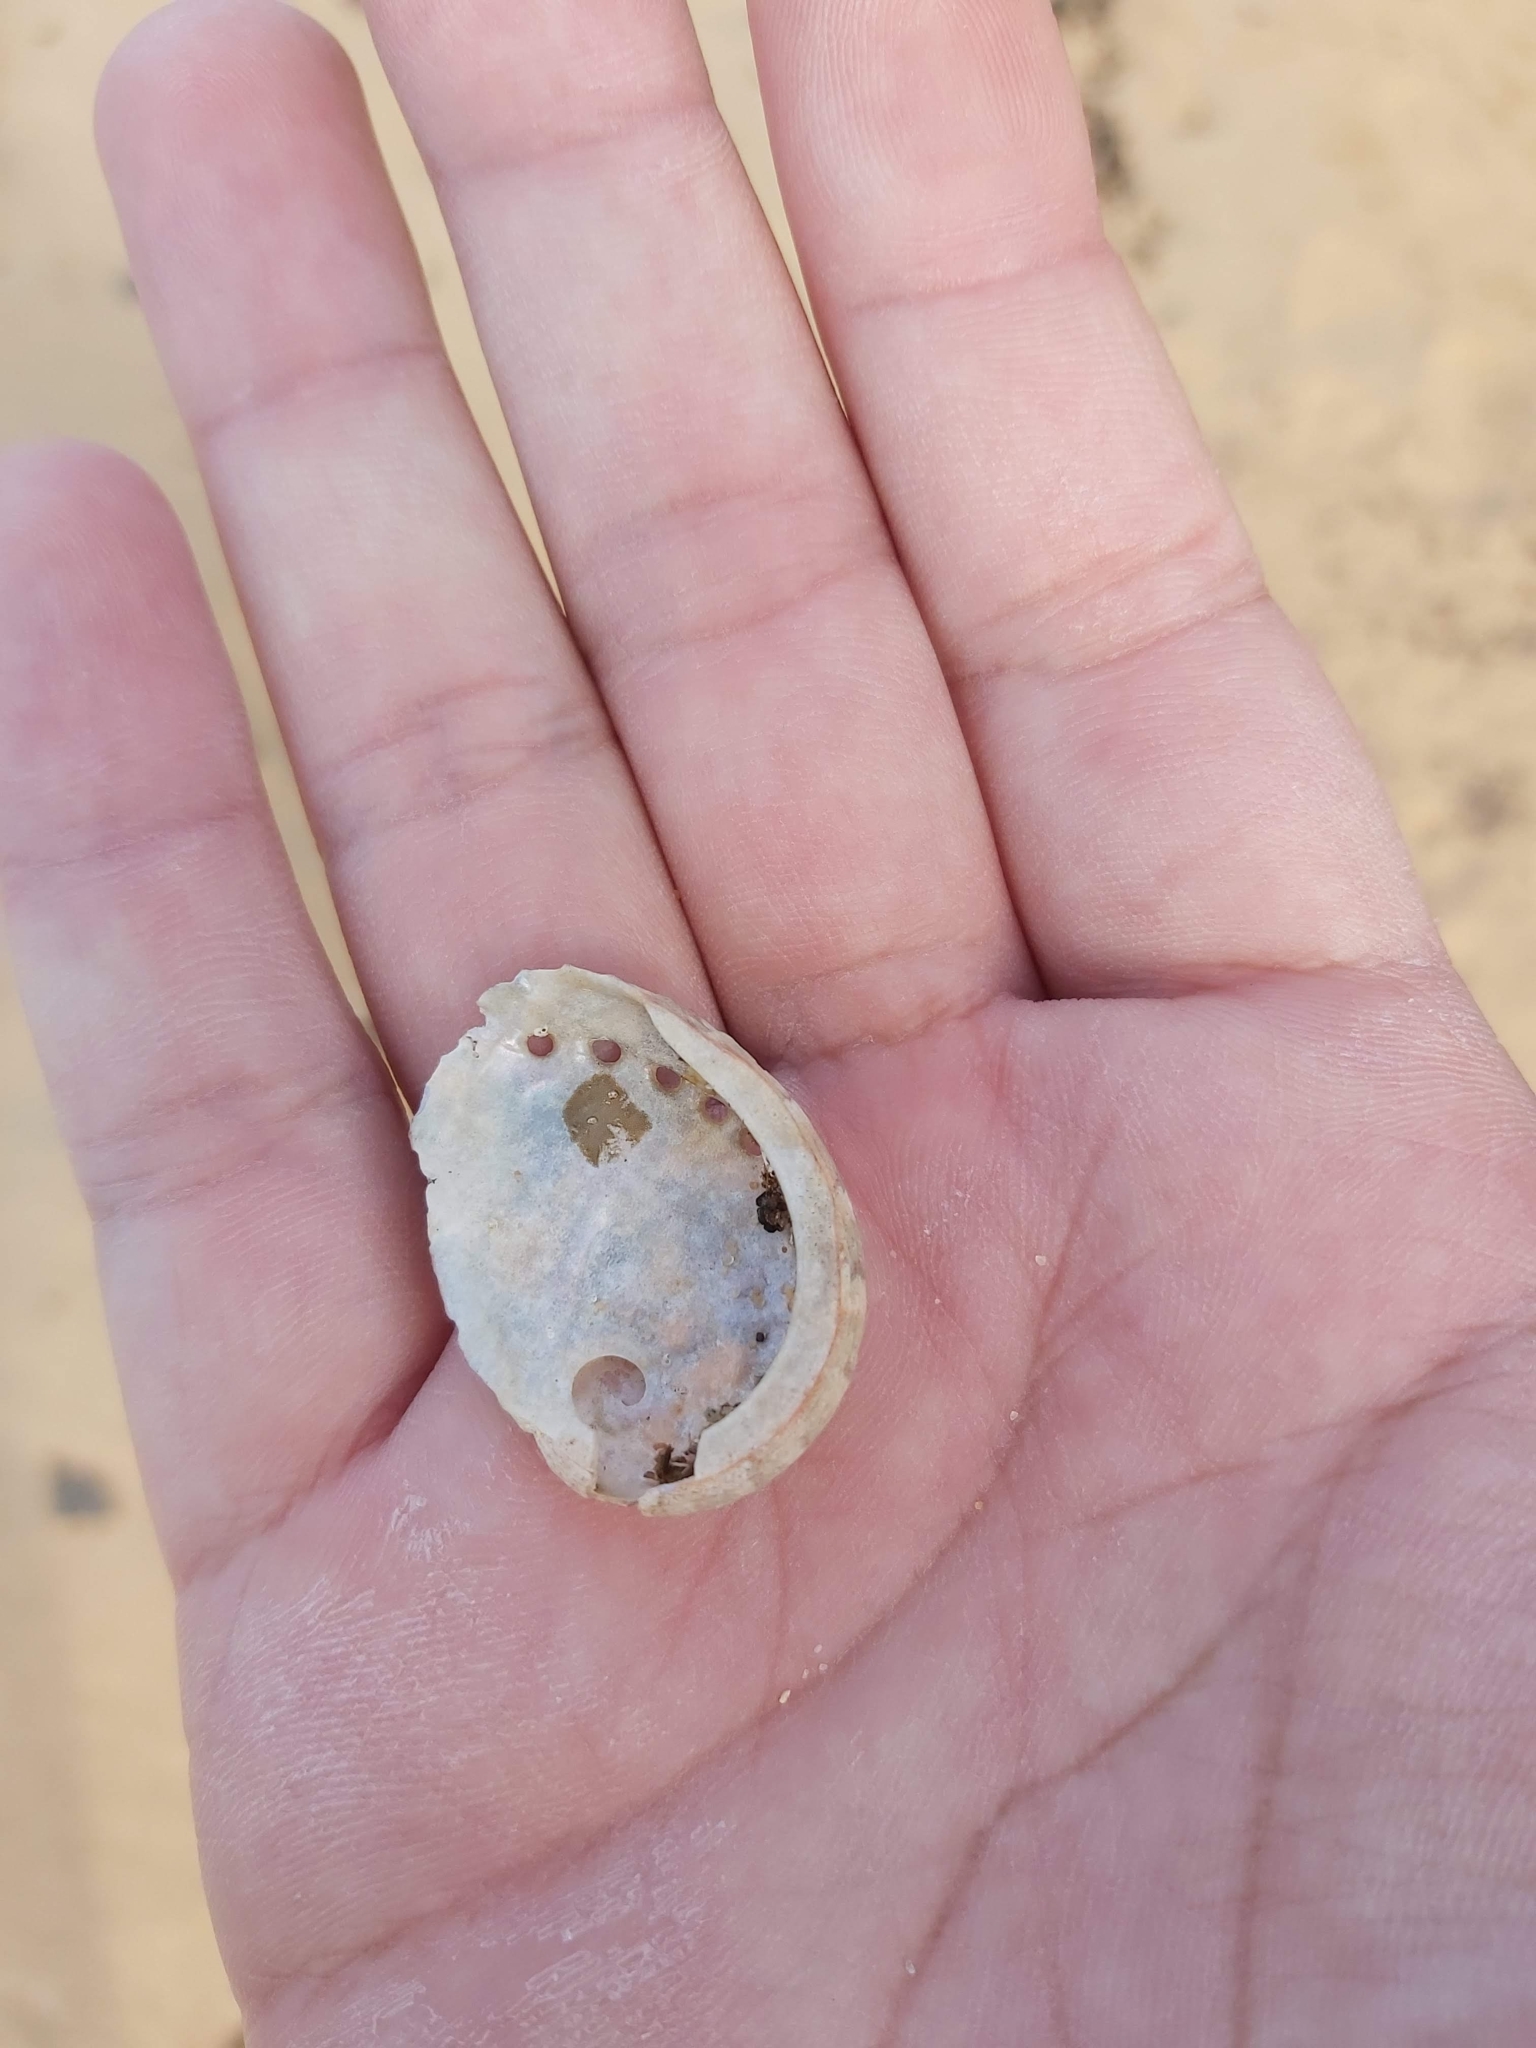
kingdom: Animalia
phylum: Mollusca
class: Gastropoda
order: Lepetellida
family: Haliotidae
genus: Haliotis
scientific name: Haliotis coccoradiata
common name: Reddish-rayed abalone
